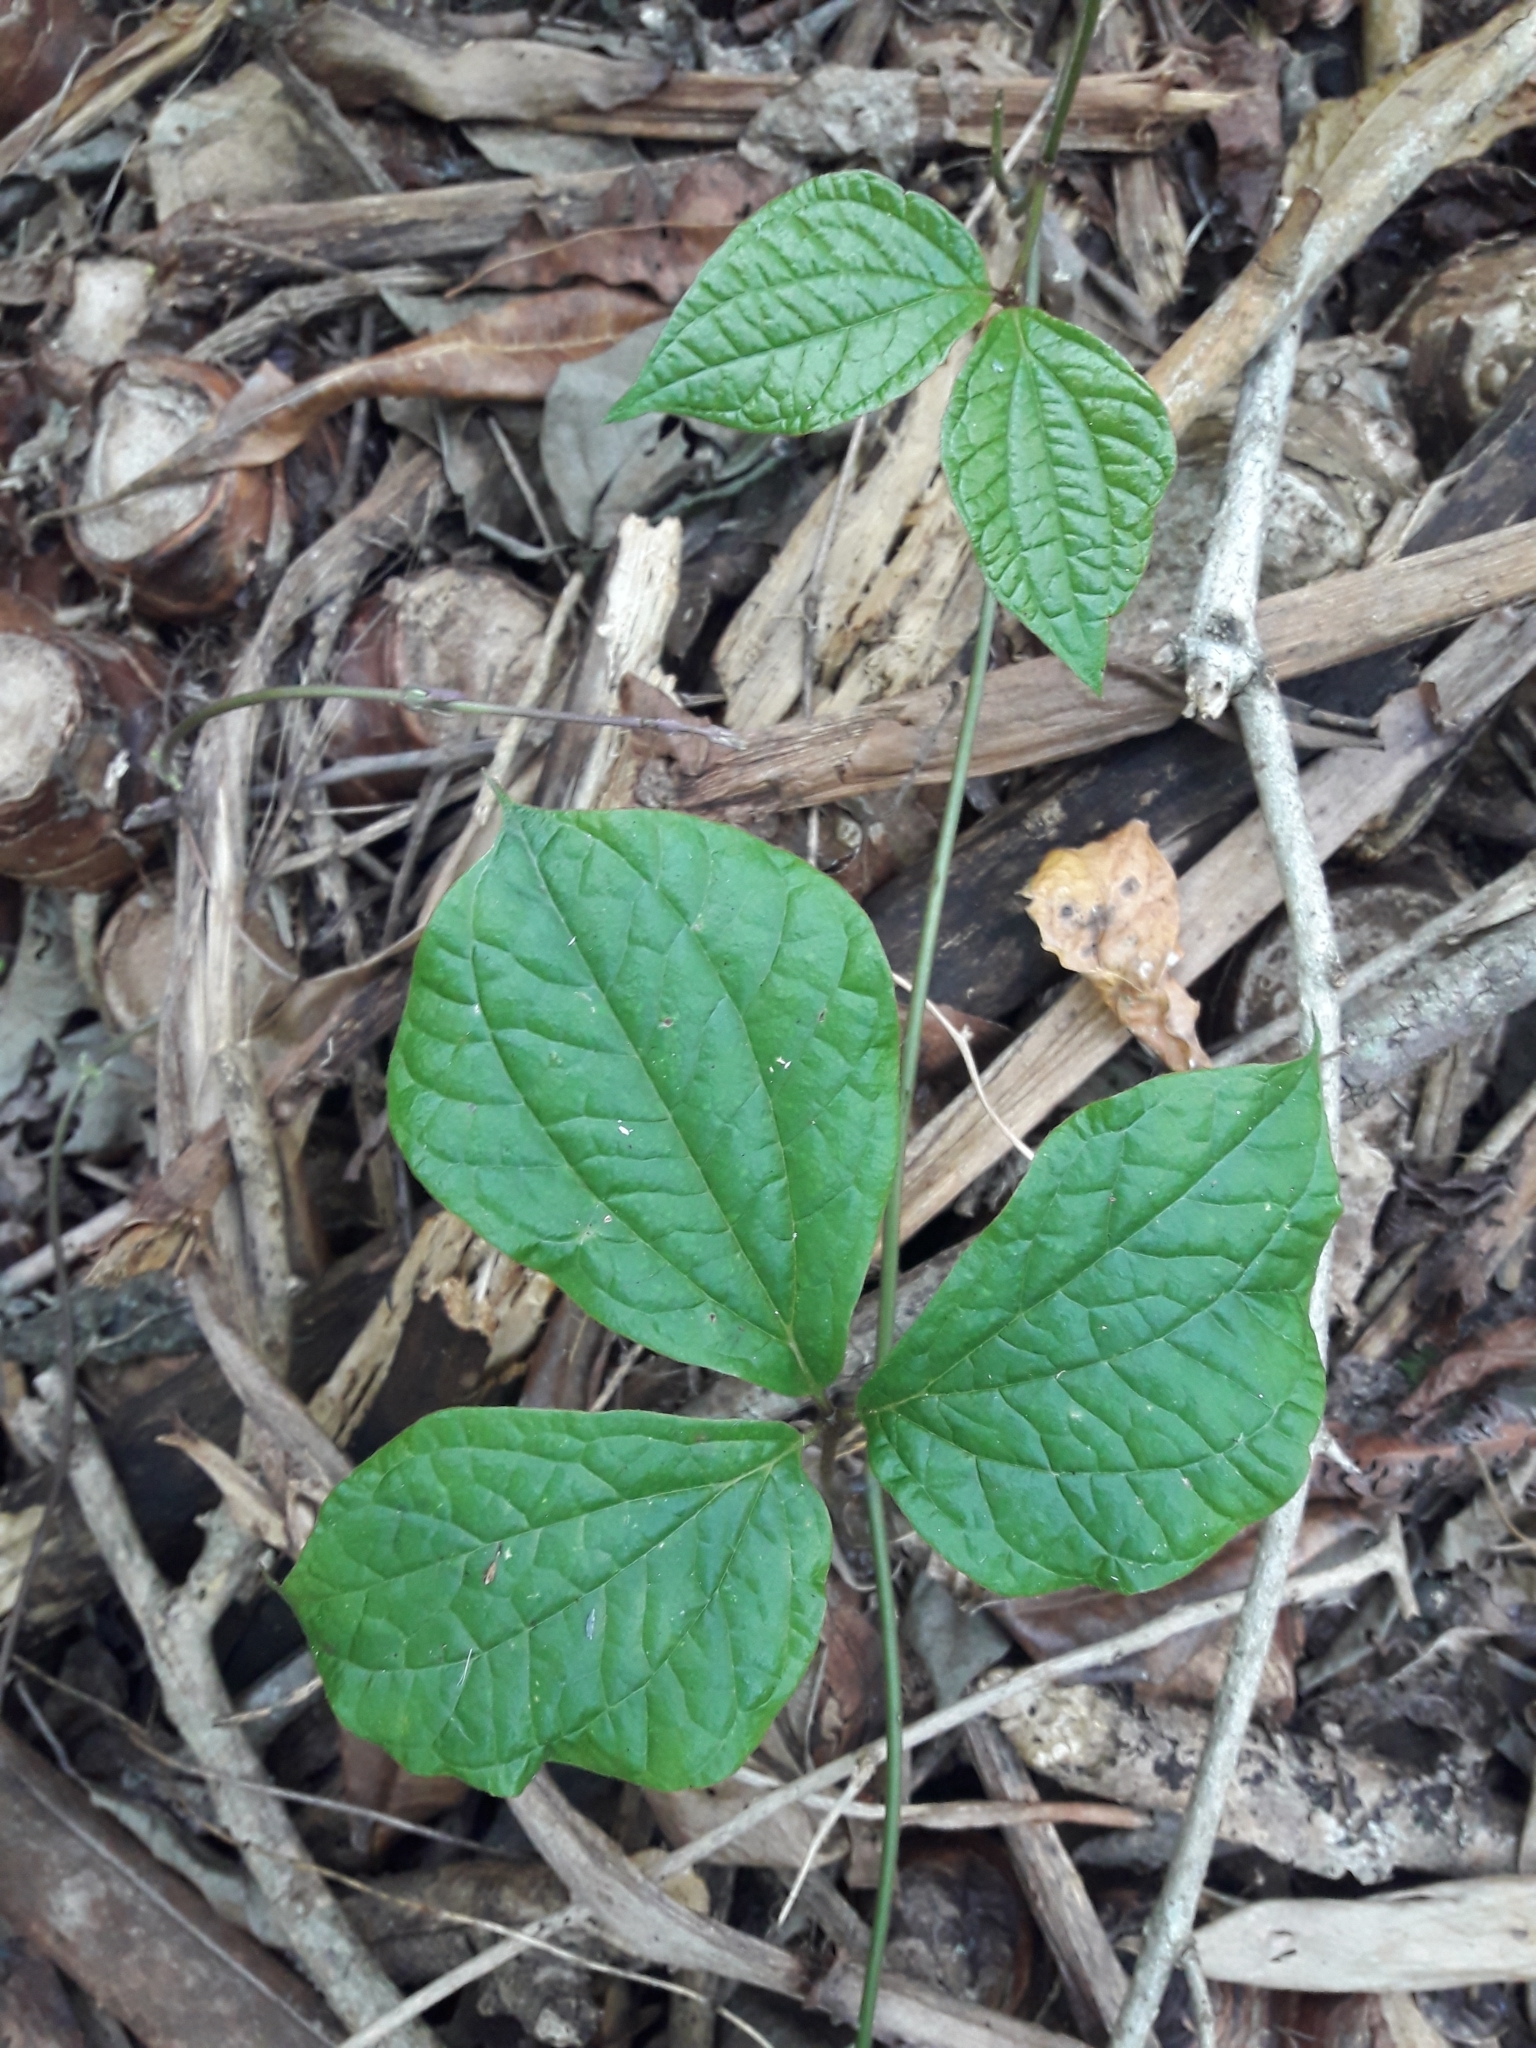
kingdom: Plantae
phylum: Tracheophyta
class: Liliopsida
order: Dioscoreales
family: Dioscoreaceae
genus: Dioscorea
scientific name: Dioscorea dregeana
